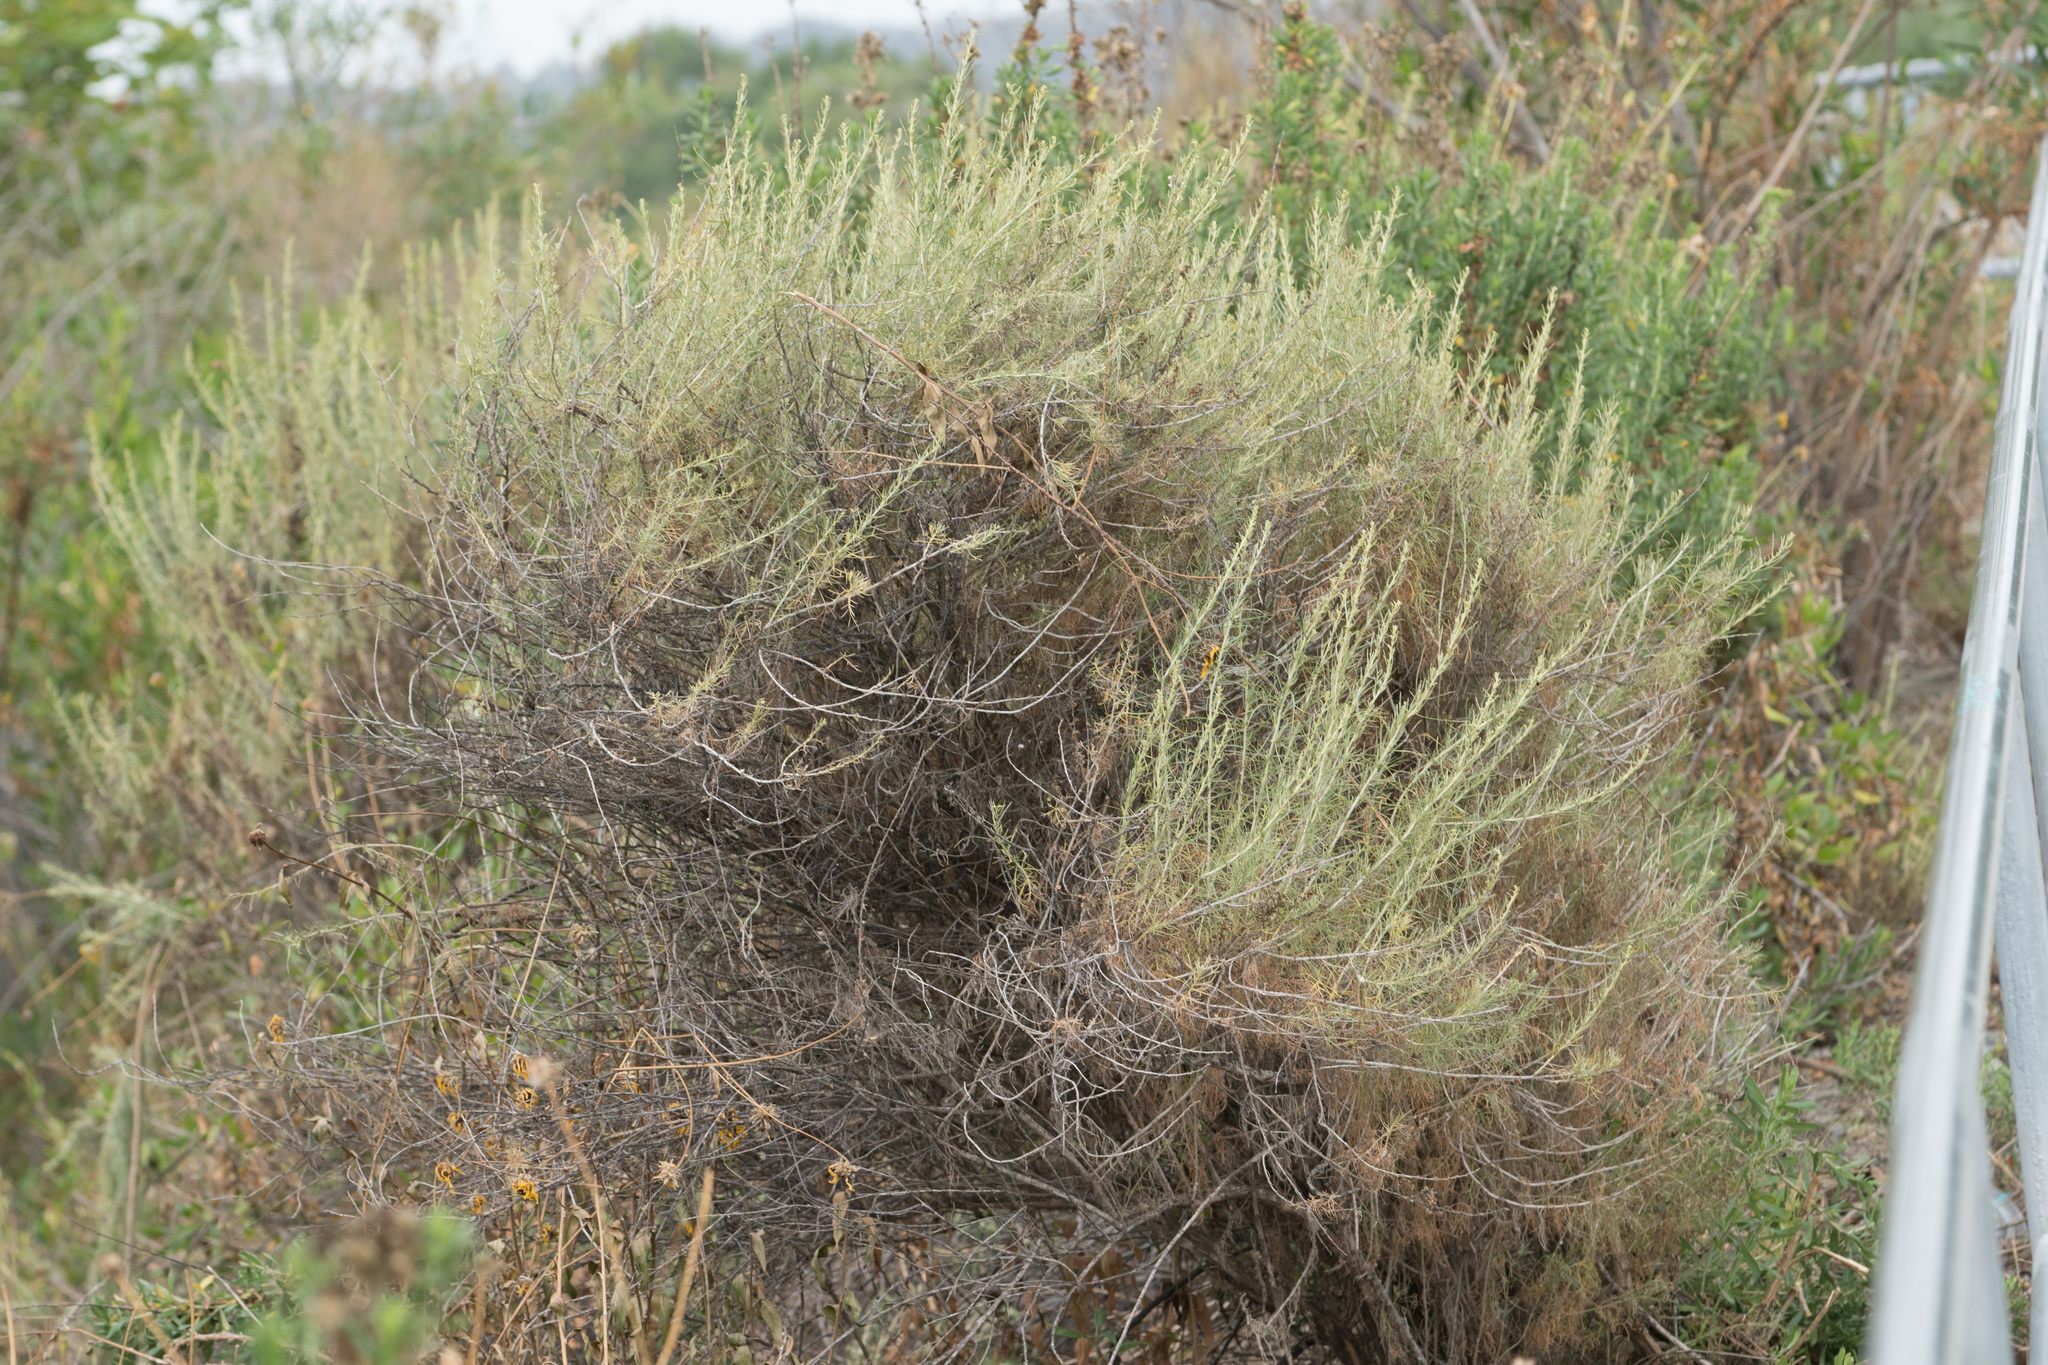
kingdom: Plantae
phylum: Tracheophyta
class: Magnoliopsida
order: Asterales
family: Asteraceae
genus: Artemisia
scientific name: Artemisia californica
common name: California sagebrush
